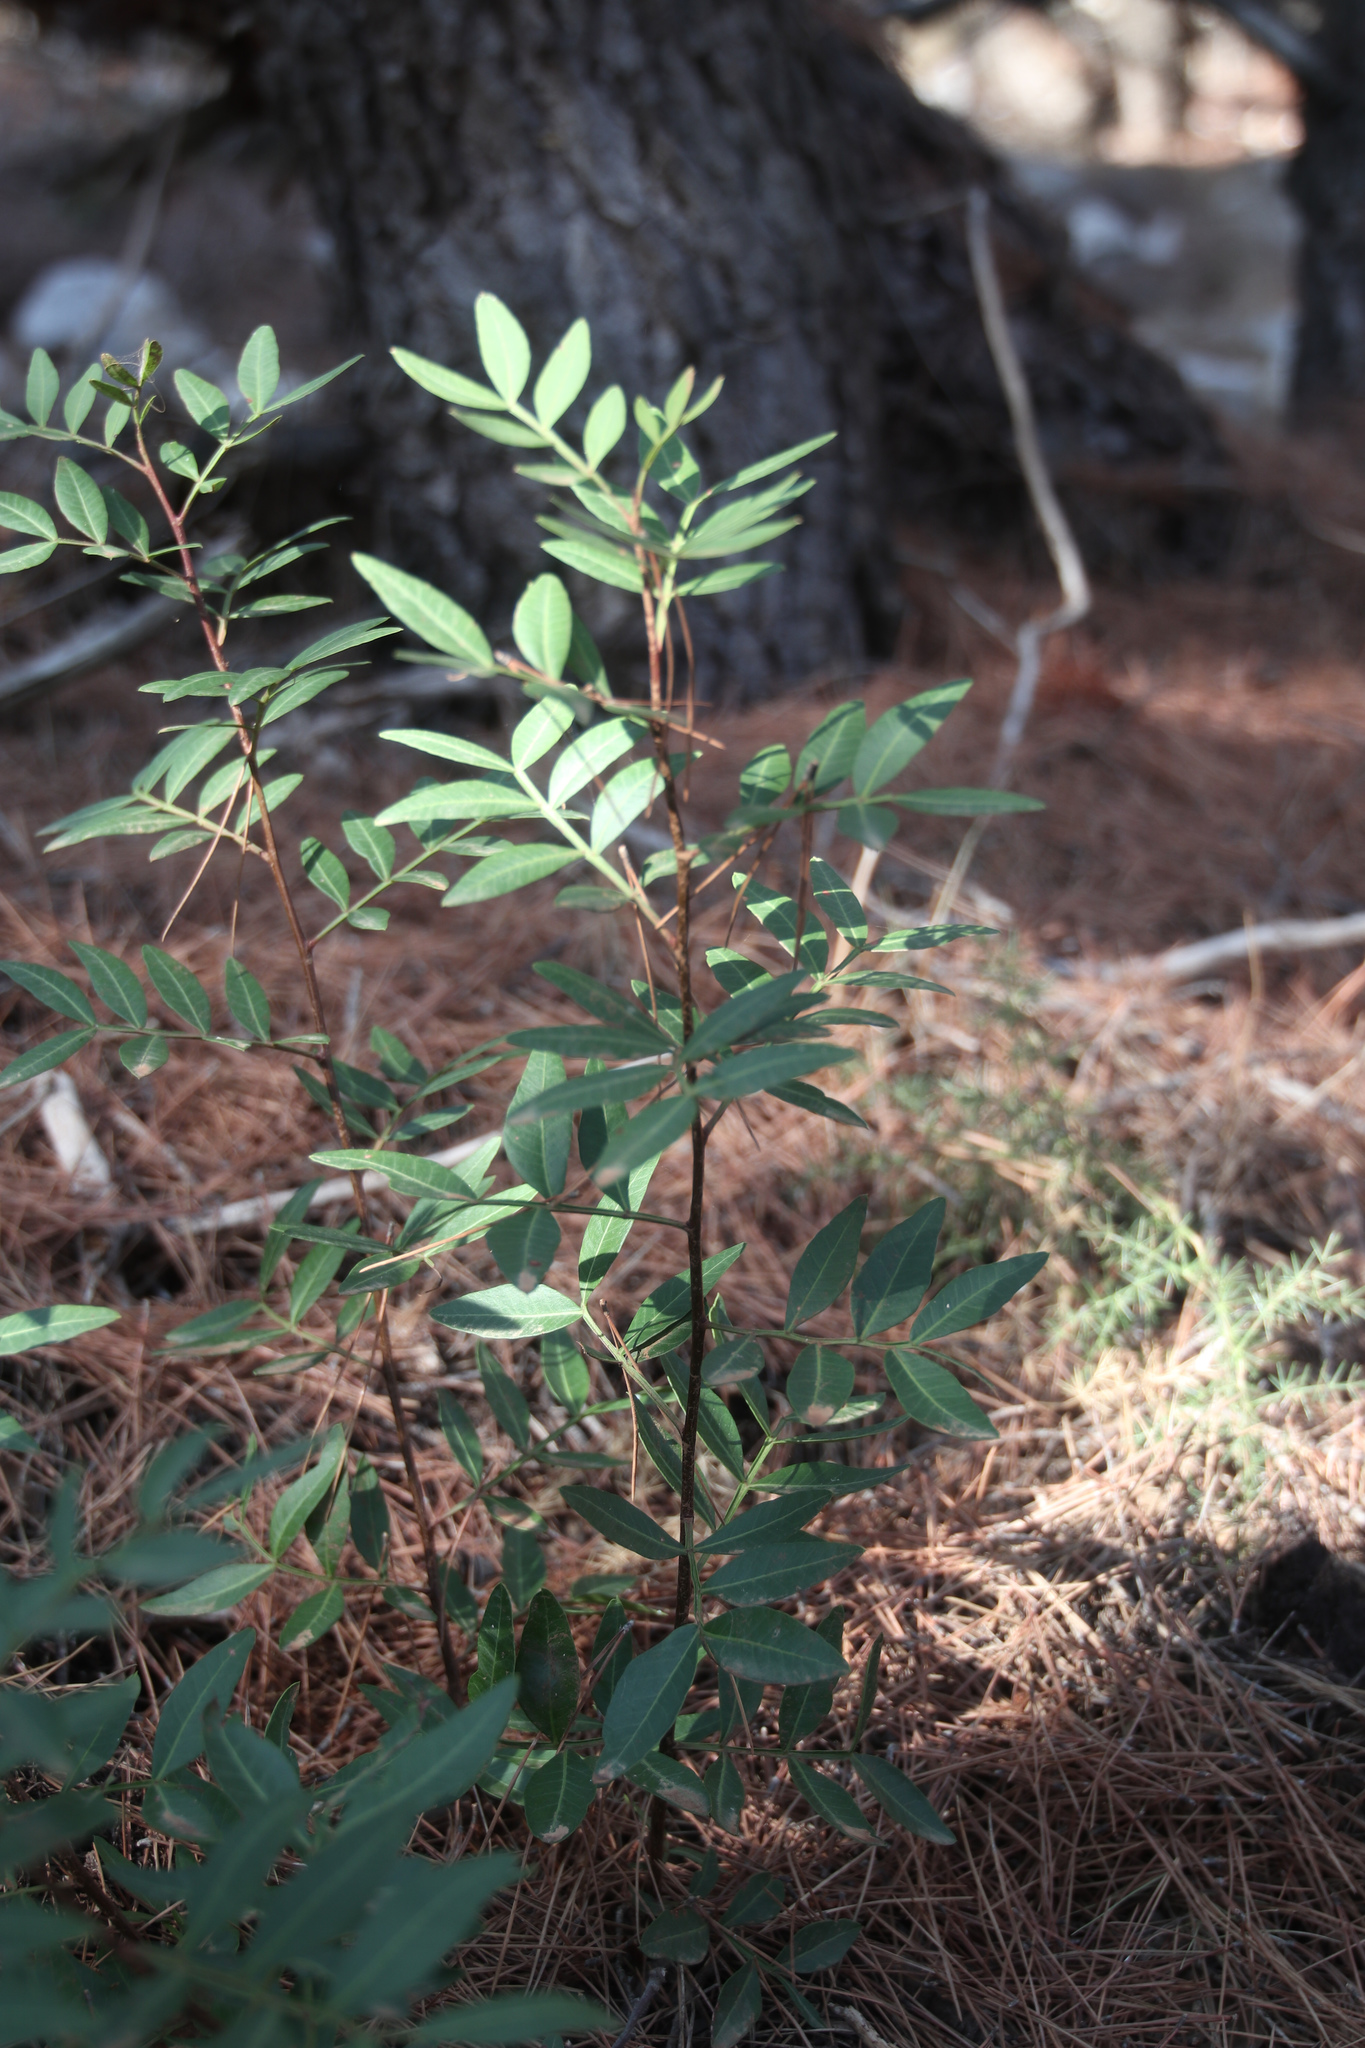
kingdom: Plantae
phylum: Tracheophyta
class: Magnoliopsida
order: Sapindales
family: Anacardiaceae
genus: Pistacia
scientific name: Pistacia lentiscus
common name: Lentisk
